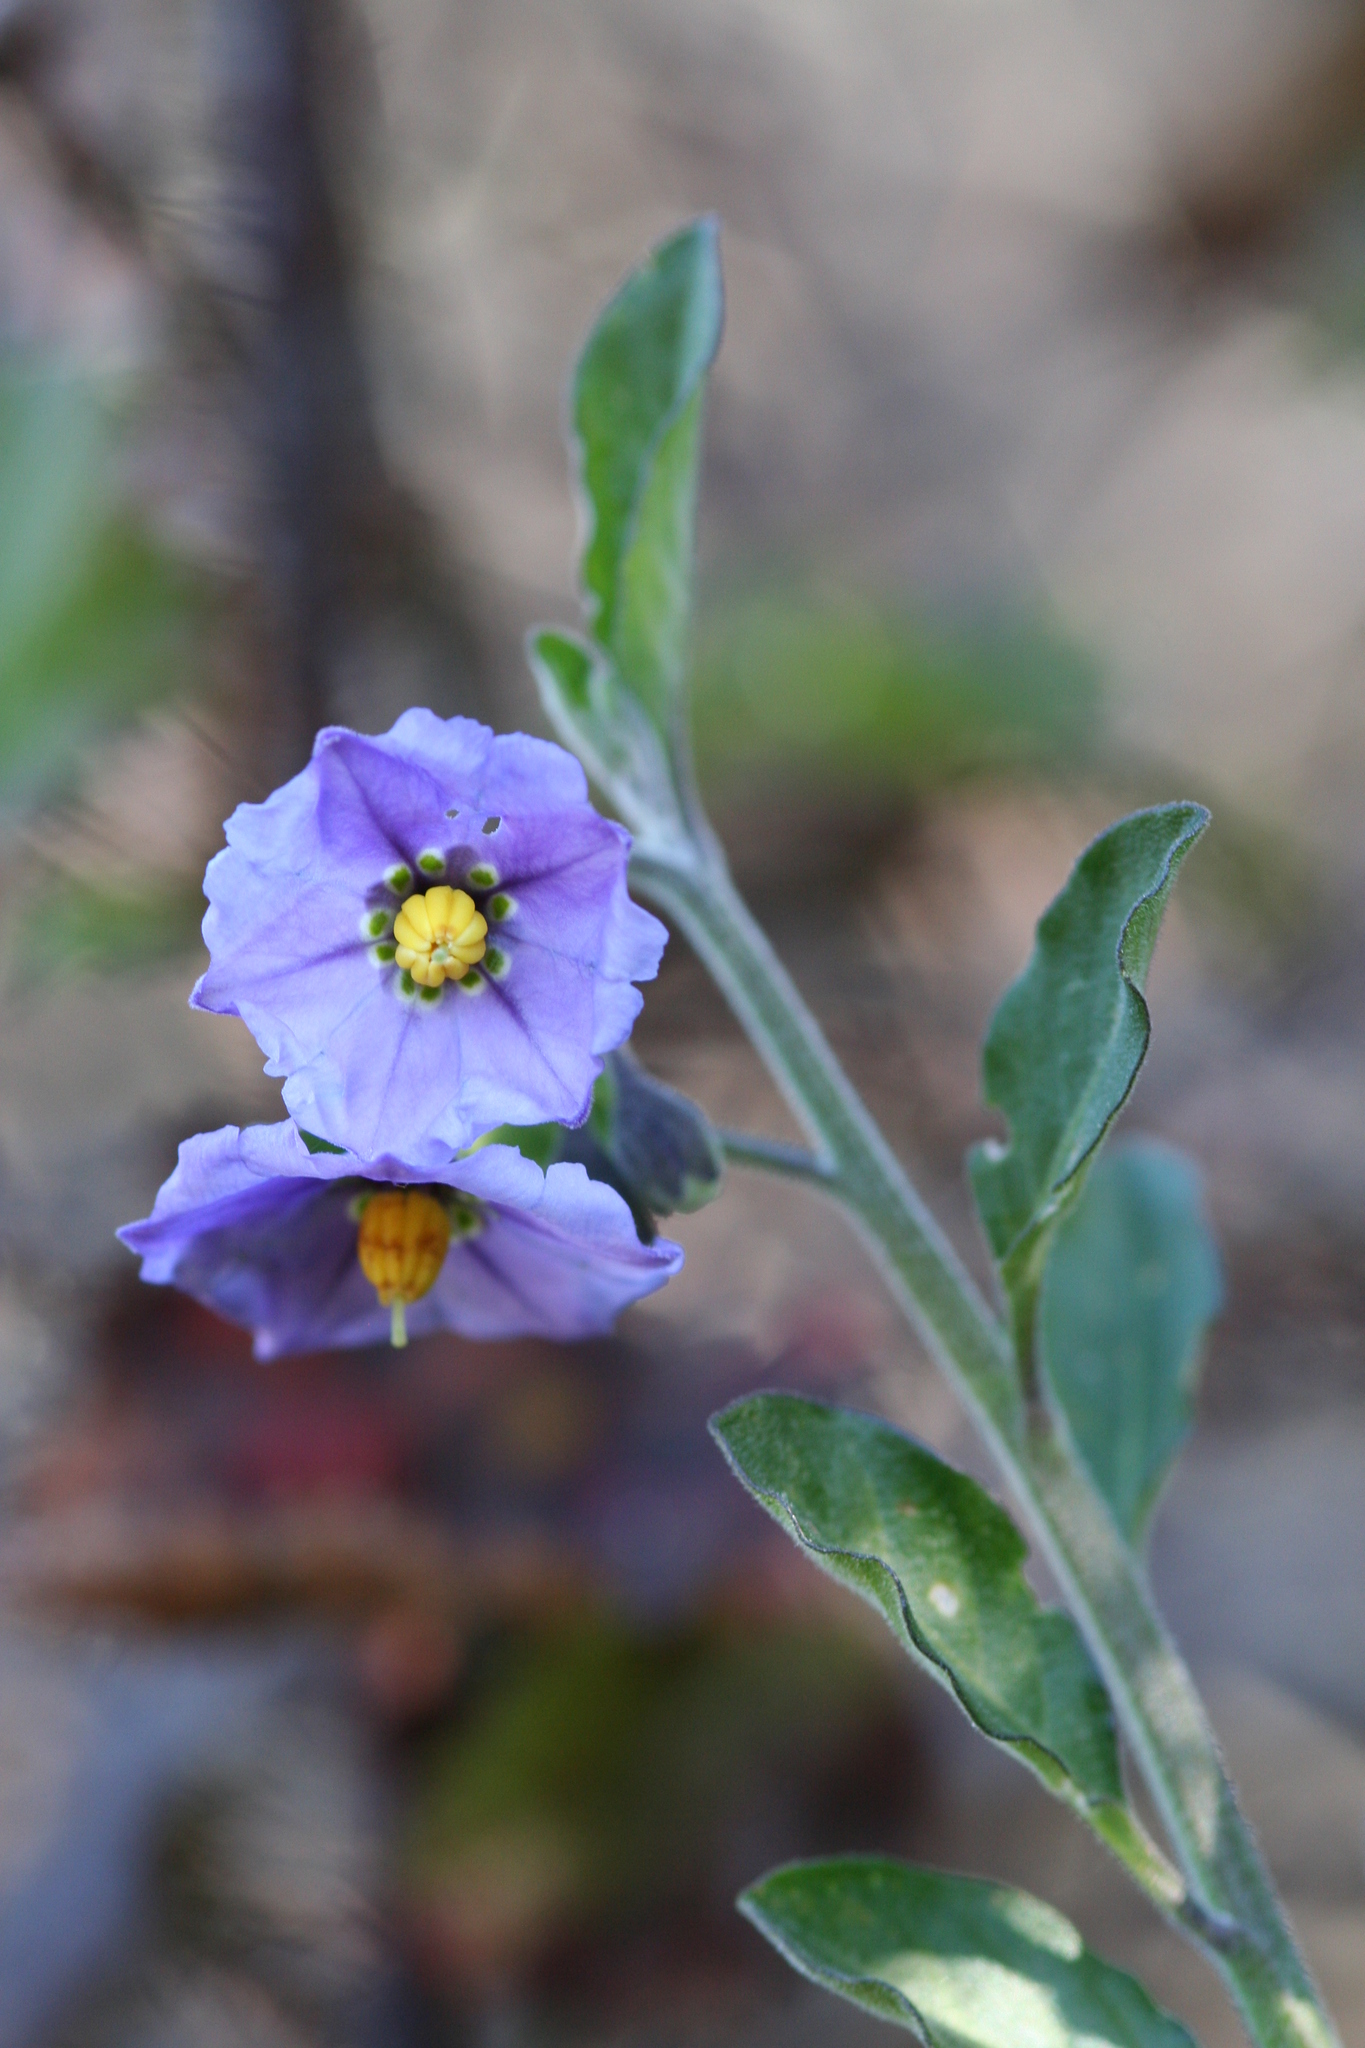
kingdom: Plantae
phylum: Tracheophyta
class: Magnoliopsida
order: Solanales
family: Solanaceae
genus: Solanum
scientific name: Solanum umbelliferum
